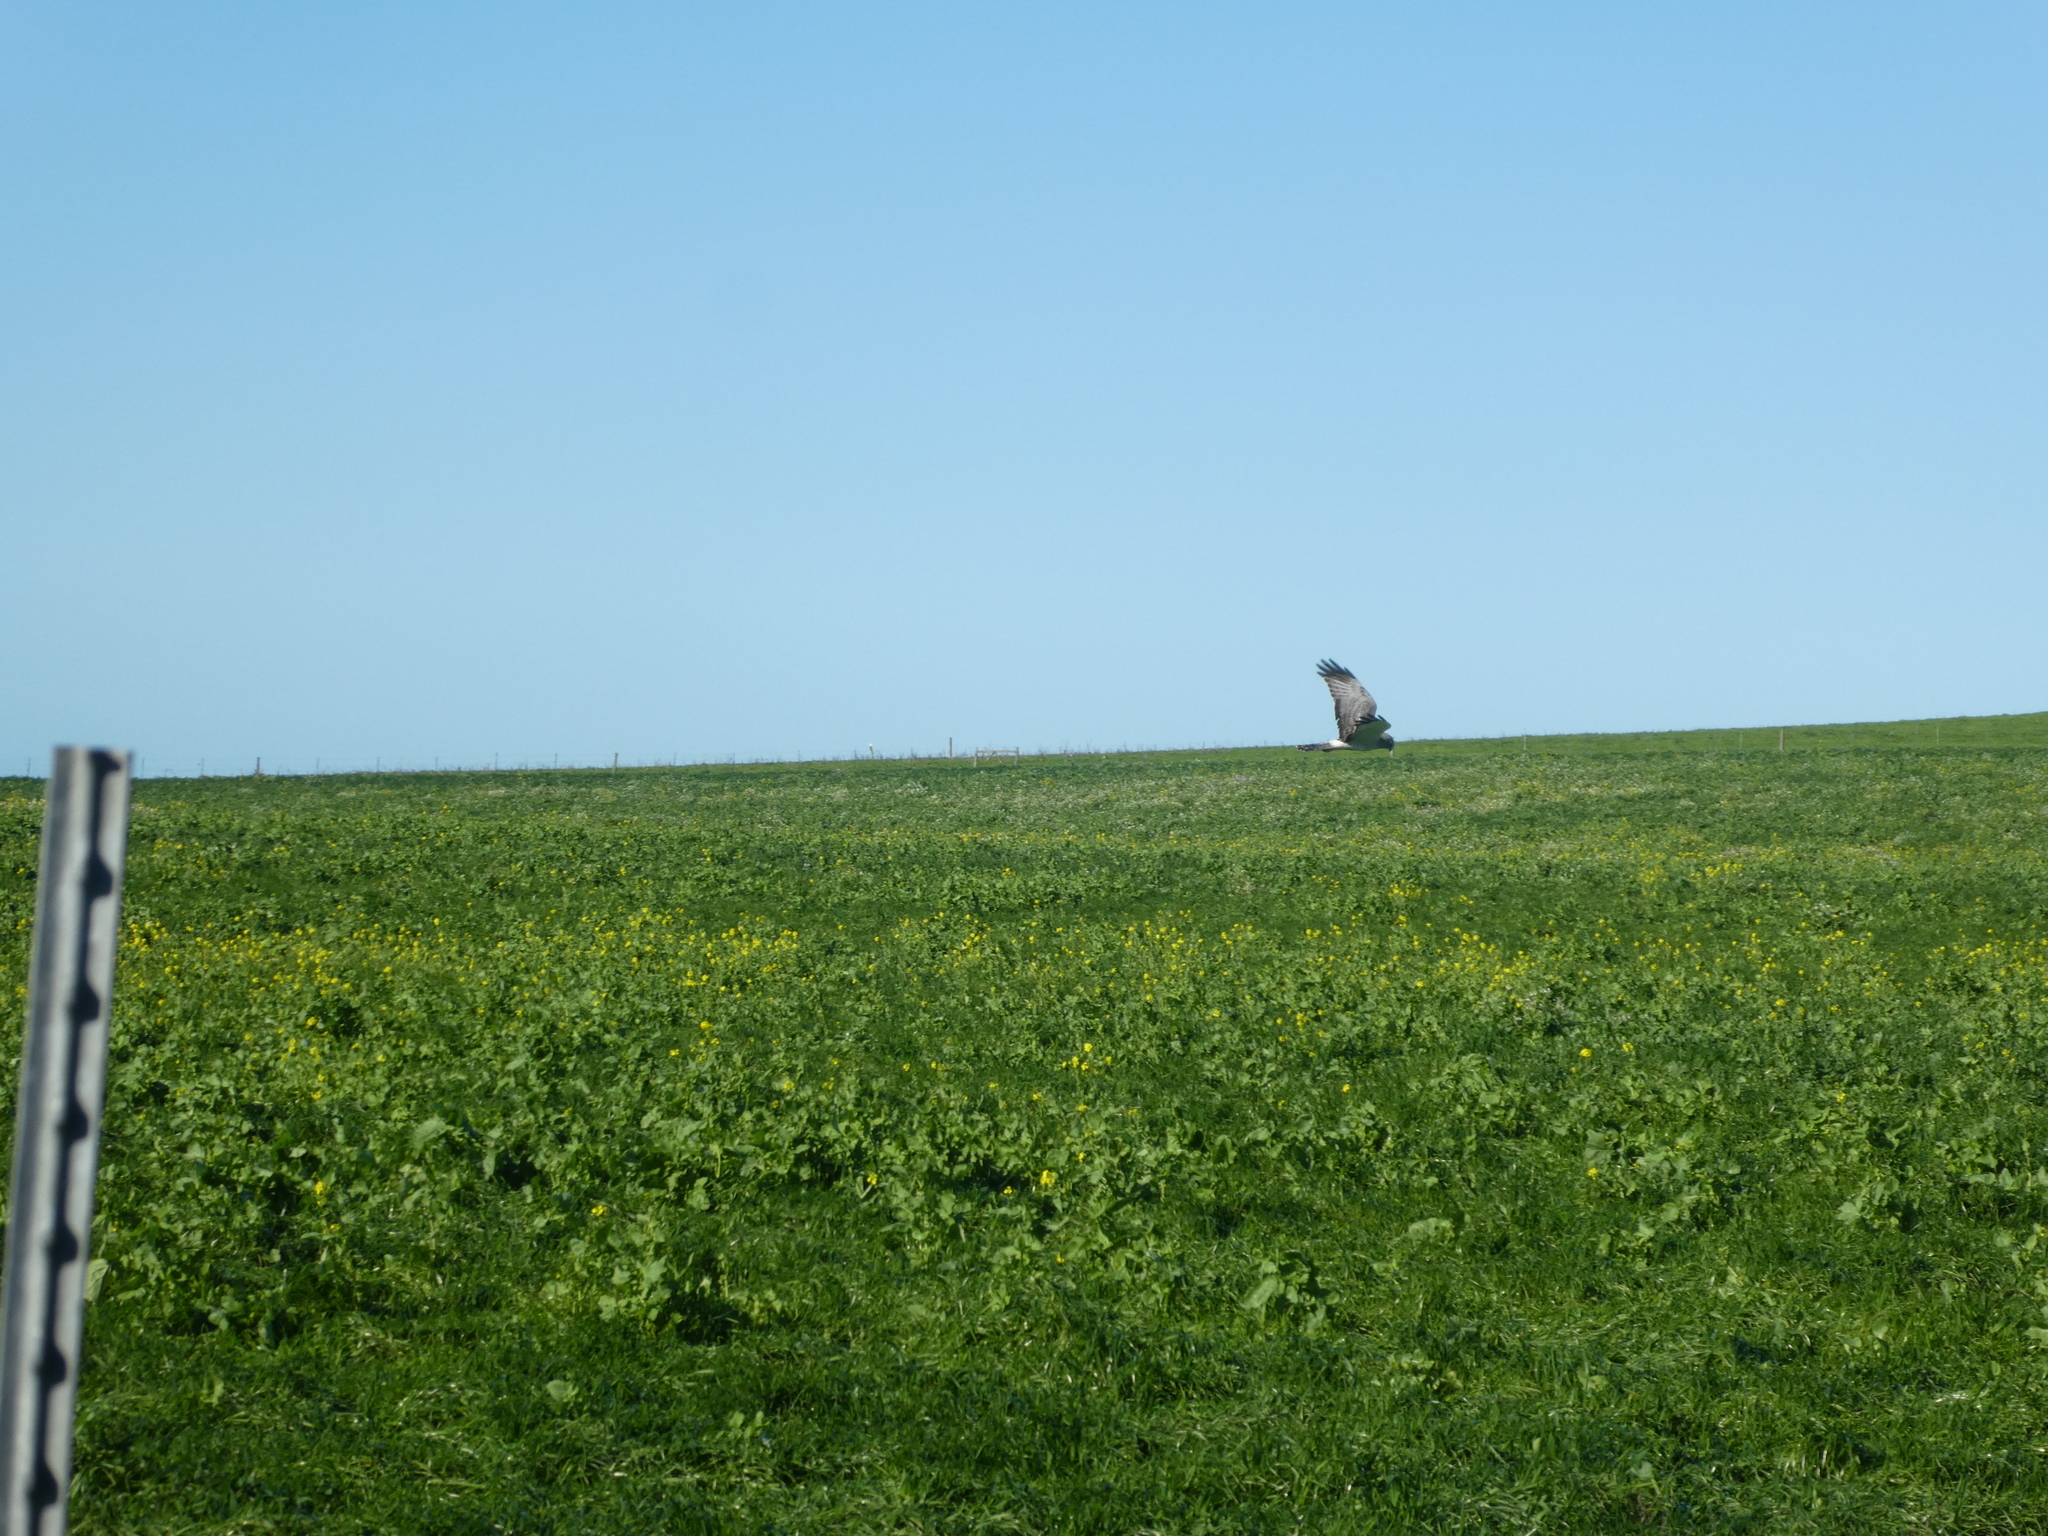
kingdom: Animalia
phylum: Chordata
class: Aves
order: Accipitriformes
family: Accipitridae
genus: Circus
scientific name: Circus cyaneus
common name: Hen harrier
